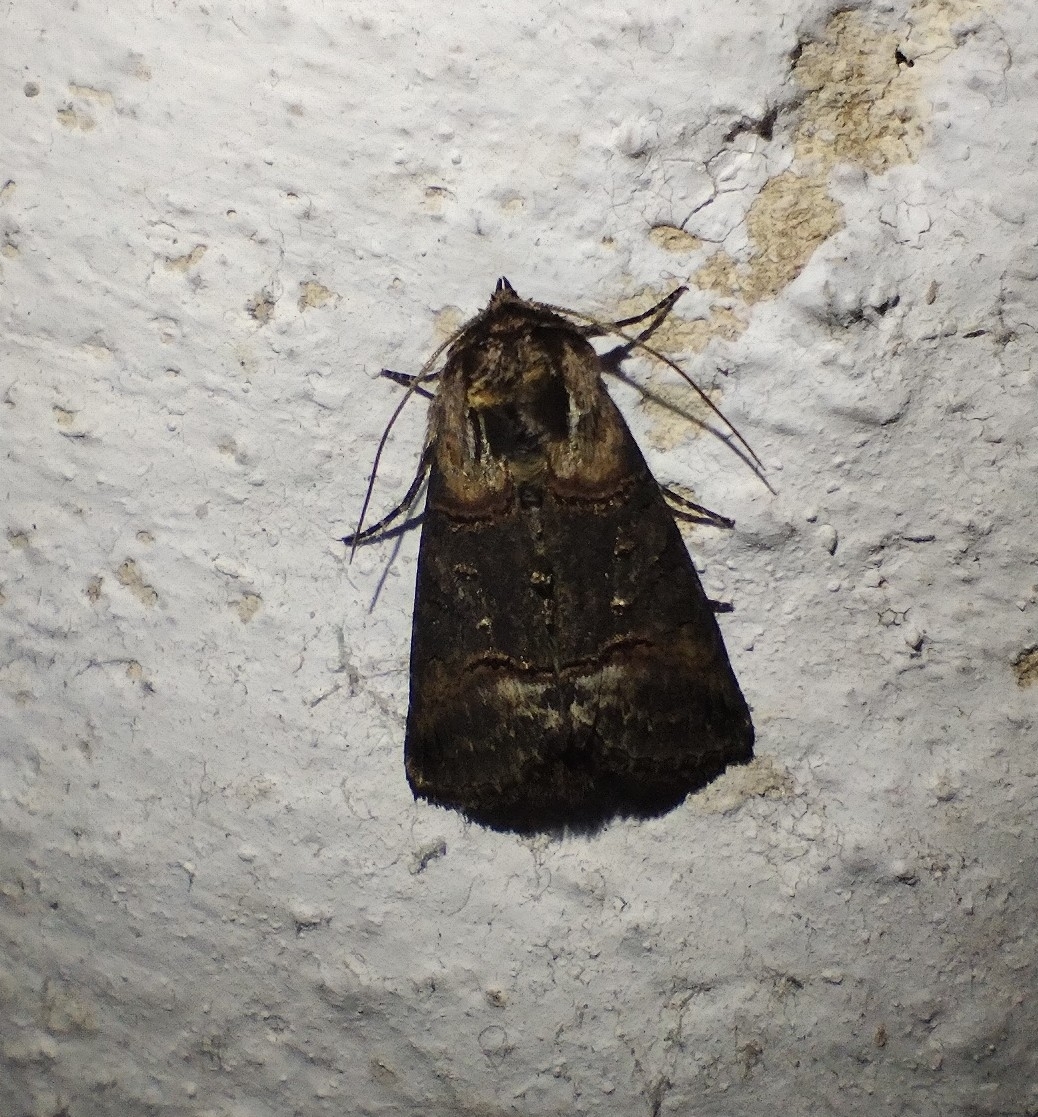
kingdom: Animalia
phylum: Arthropoda
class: Insecta
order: Lepidoptera
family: Noctuidae
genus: Abrostola
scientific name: Abrostola triplasia
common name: Dark spectacle
